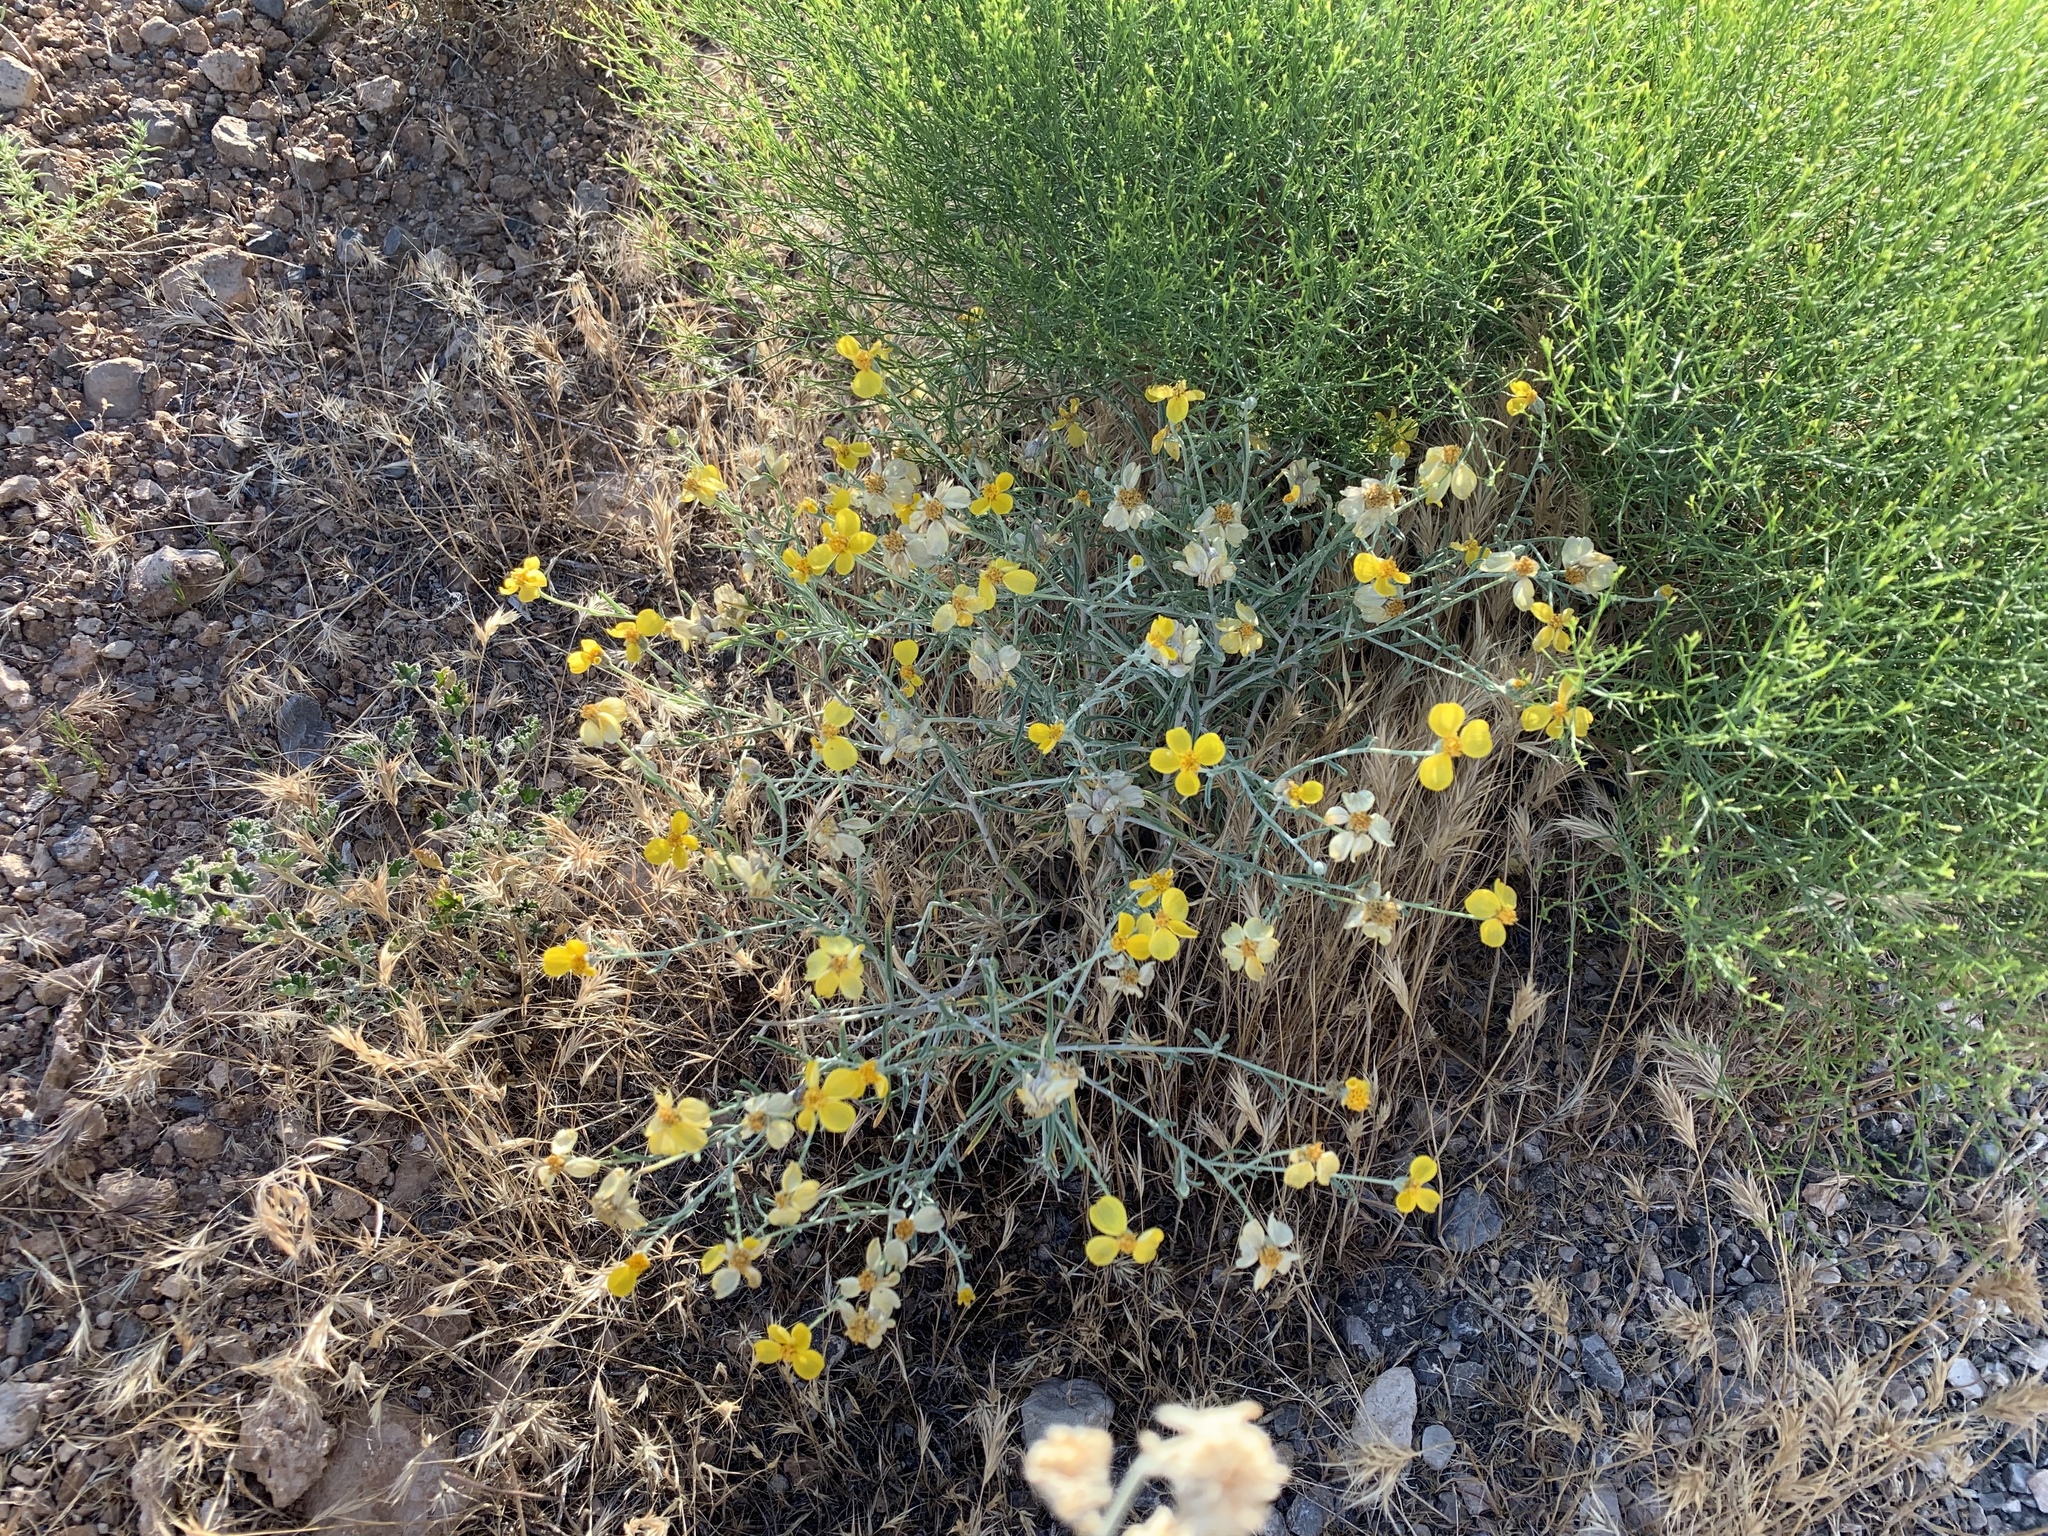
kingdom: Plantae
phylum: Tracheophyta
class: Magnoliopsida
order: Asterales
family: Asteraceae
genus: Psilostrophe
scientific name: Psilostrophe cooperi
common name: White-stem paper-flower
